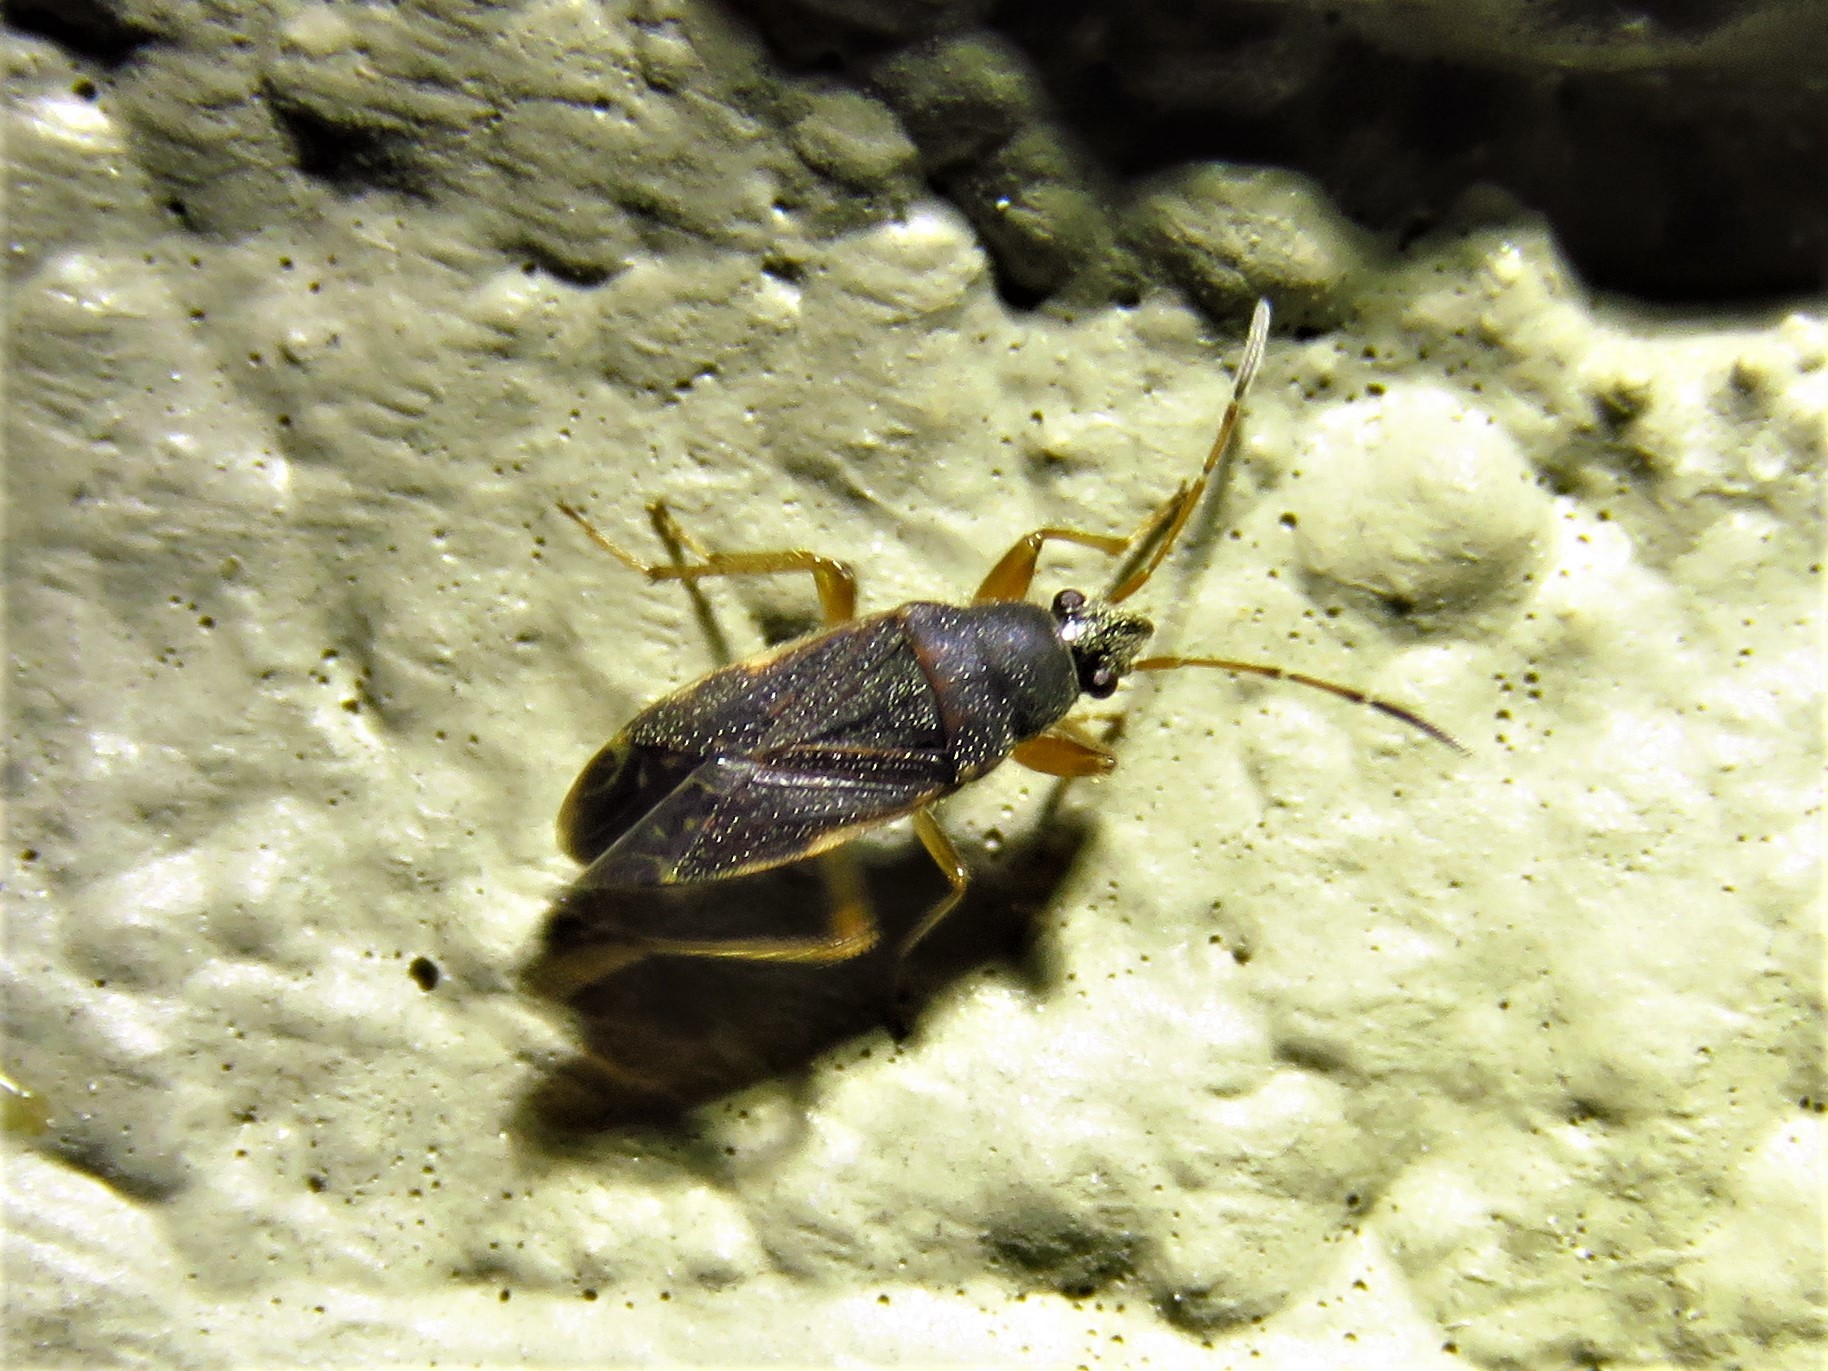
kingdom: Animalia
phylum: Arthropoda
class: Insecta
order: Hemiptera
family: Rhyparochromidae
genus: Perigenes
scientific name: Perigenes similis
